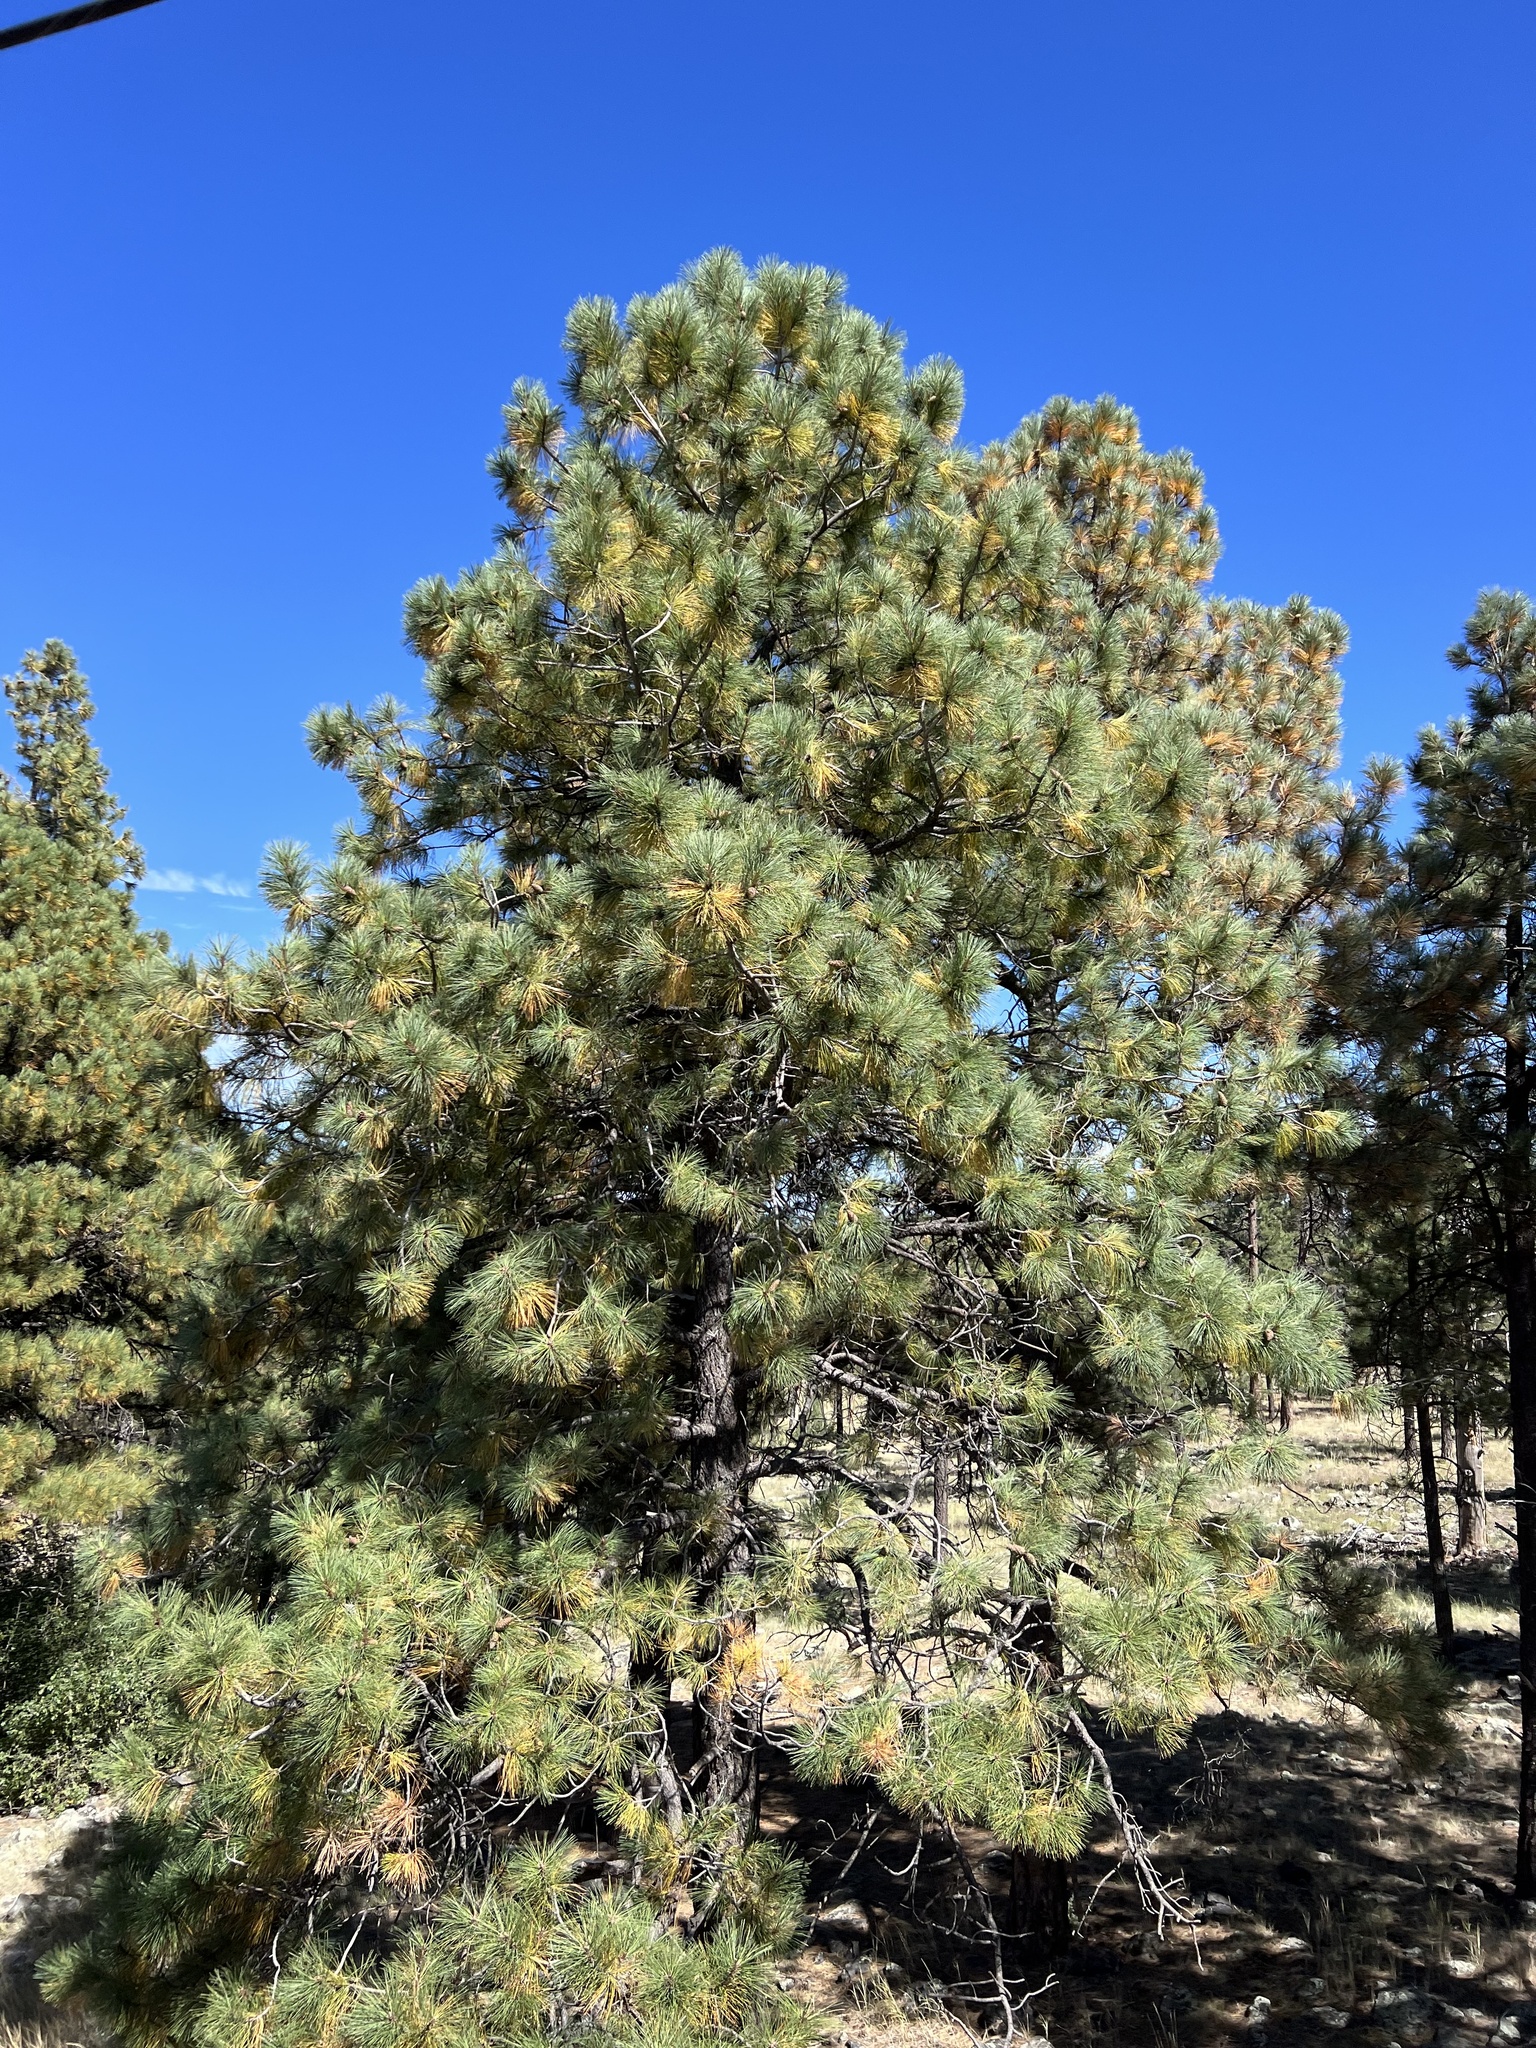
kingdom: Plantae
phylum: Tracheophyta
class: Pinopsida
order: Pinales
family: Pinaceae
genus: Pinus
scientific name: Pinus ponderosa
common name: Western yellow-pine
